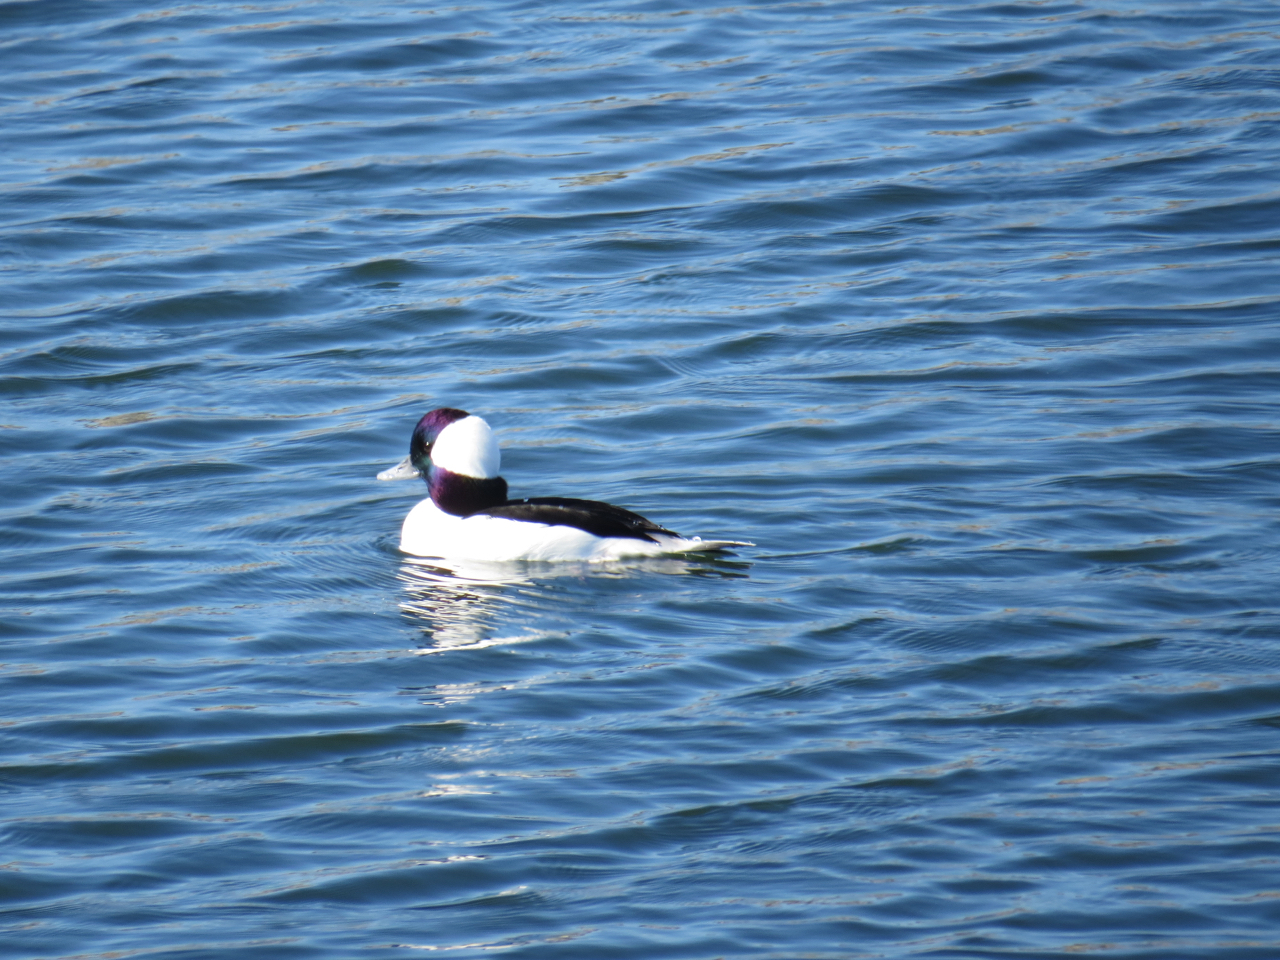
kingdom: Animalia
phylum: Chordata
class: Aves
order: Anseriformes
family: Anatidae
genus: Bucephala
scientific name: Bucephala albeola
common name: Bufflehead
